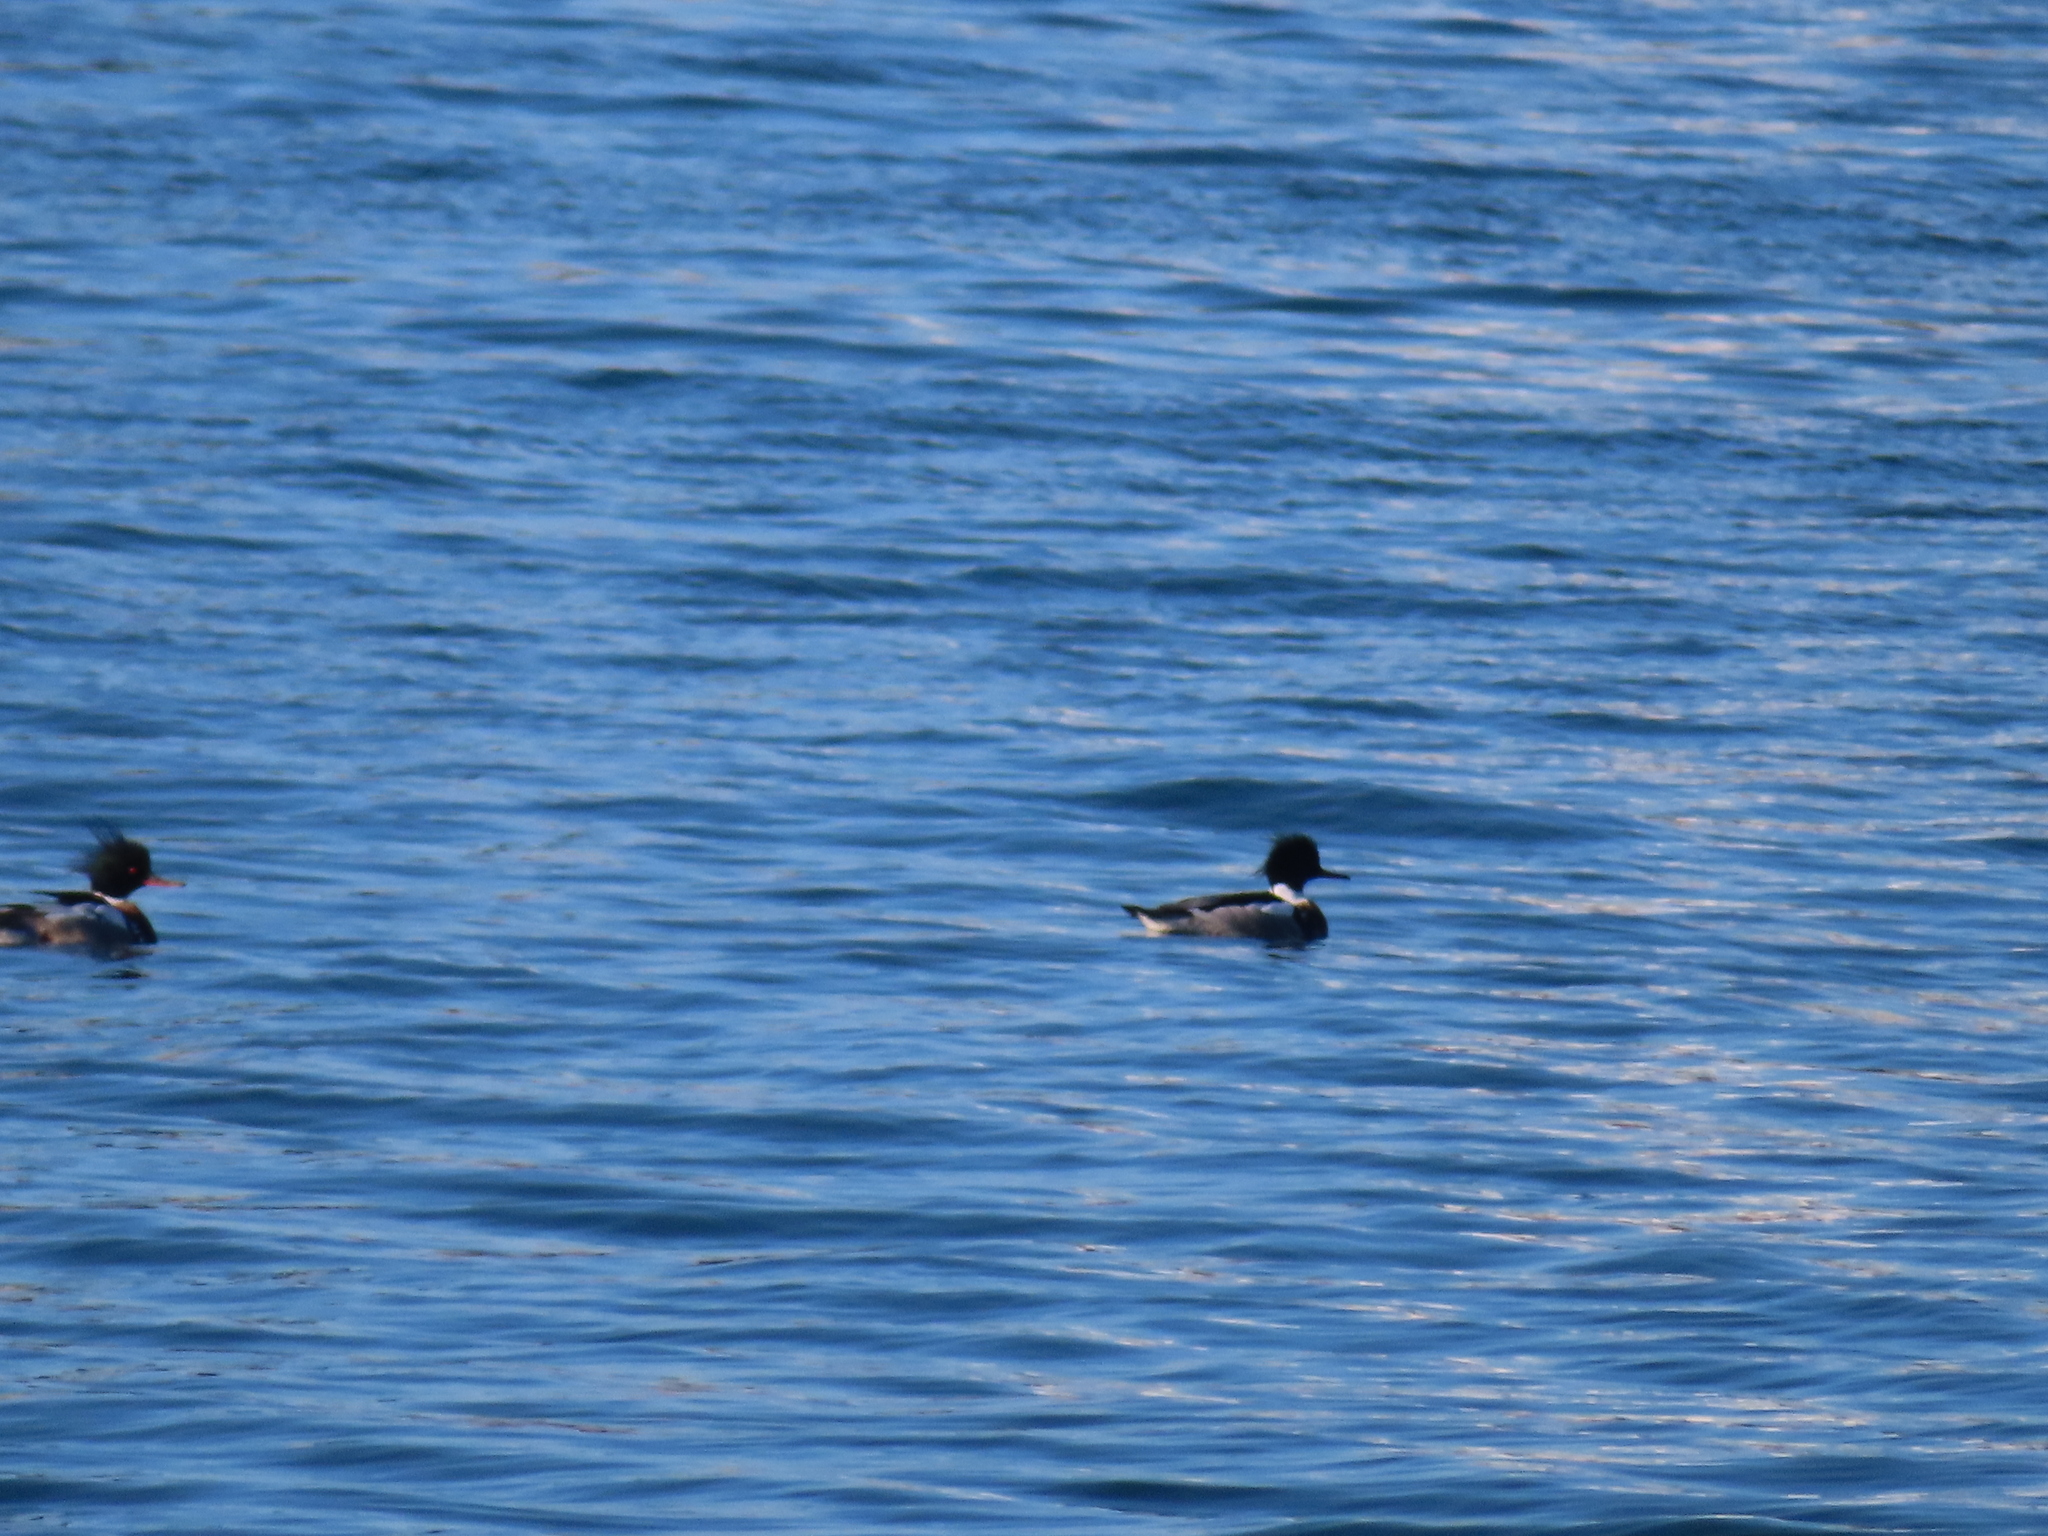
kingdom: Animalia
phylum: Chordata
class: Aves
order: Anseriformes
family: Anatidae
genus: Mergus
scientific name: Mergus serrator
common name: Red-breasted merganser
